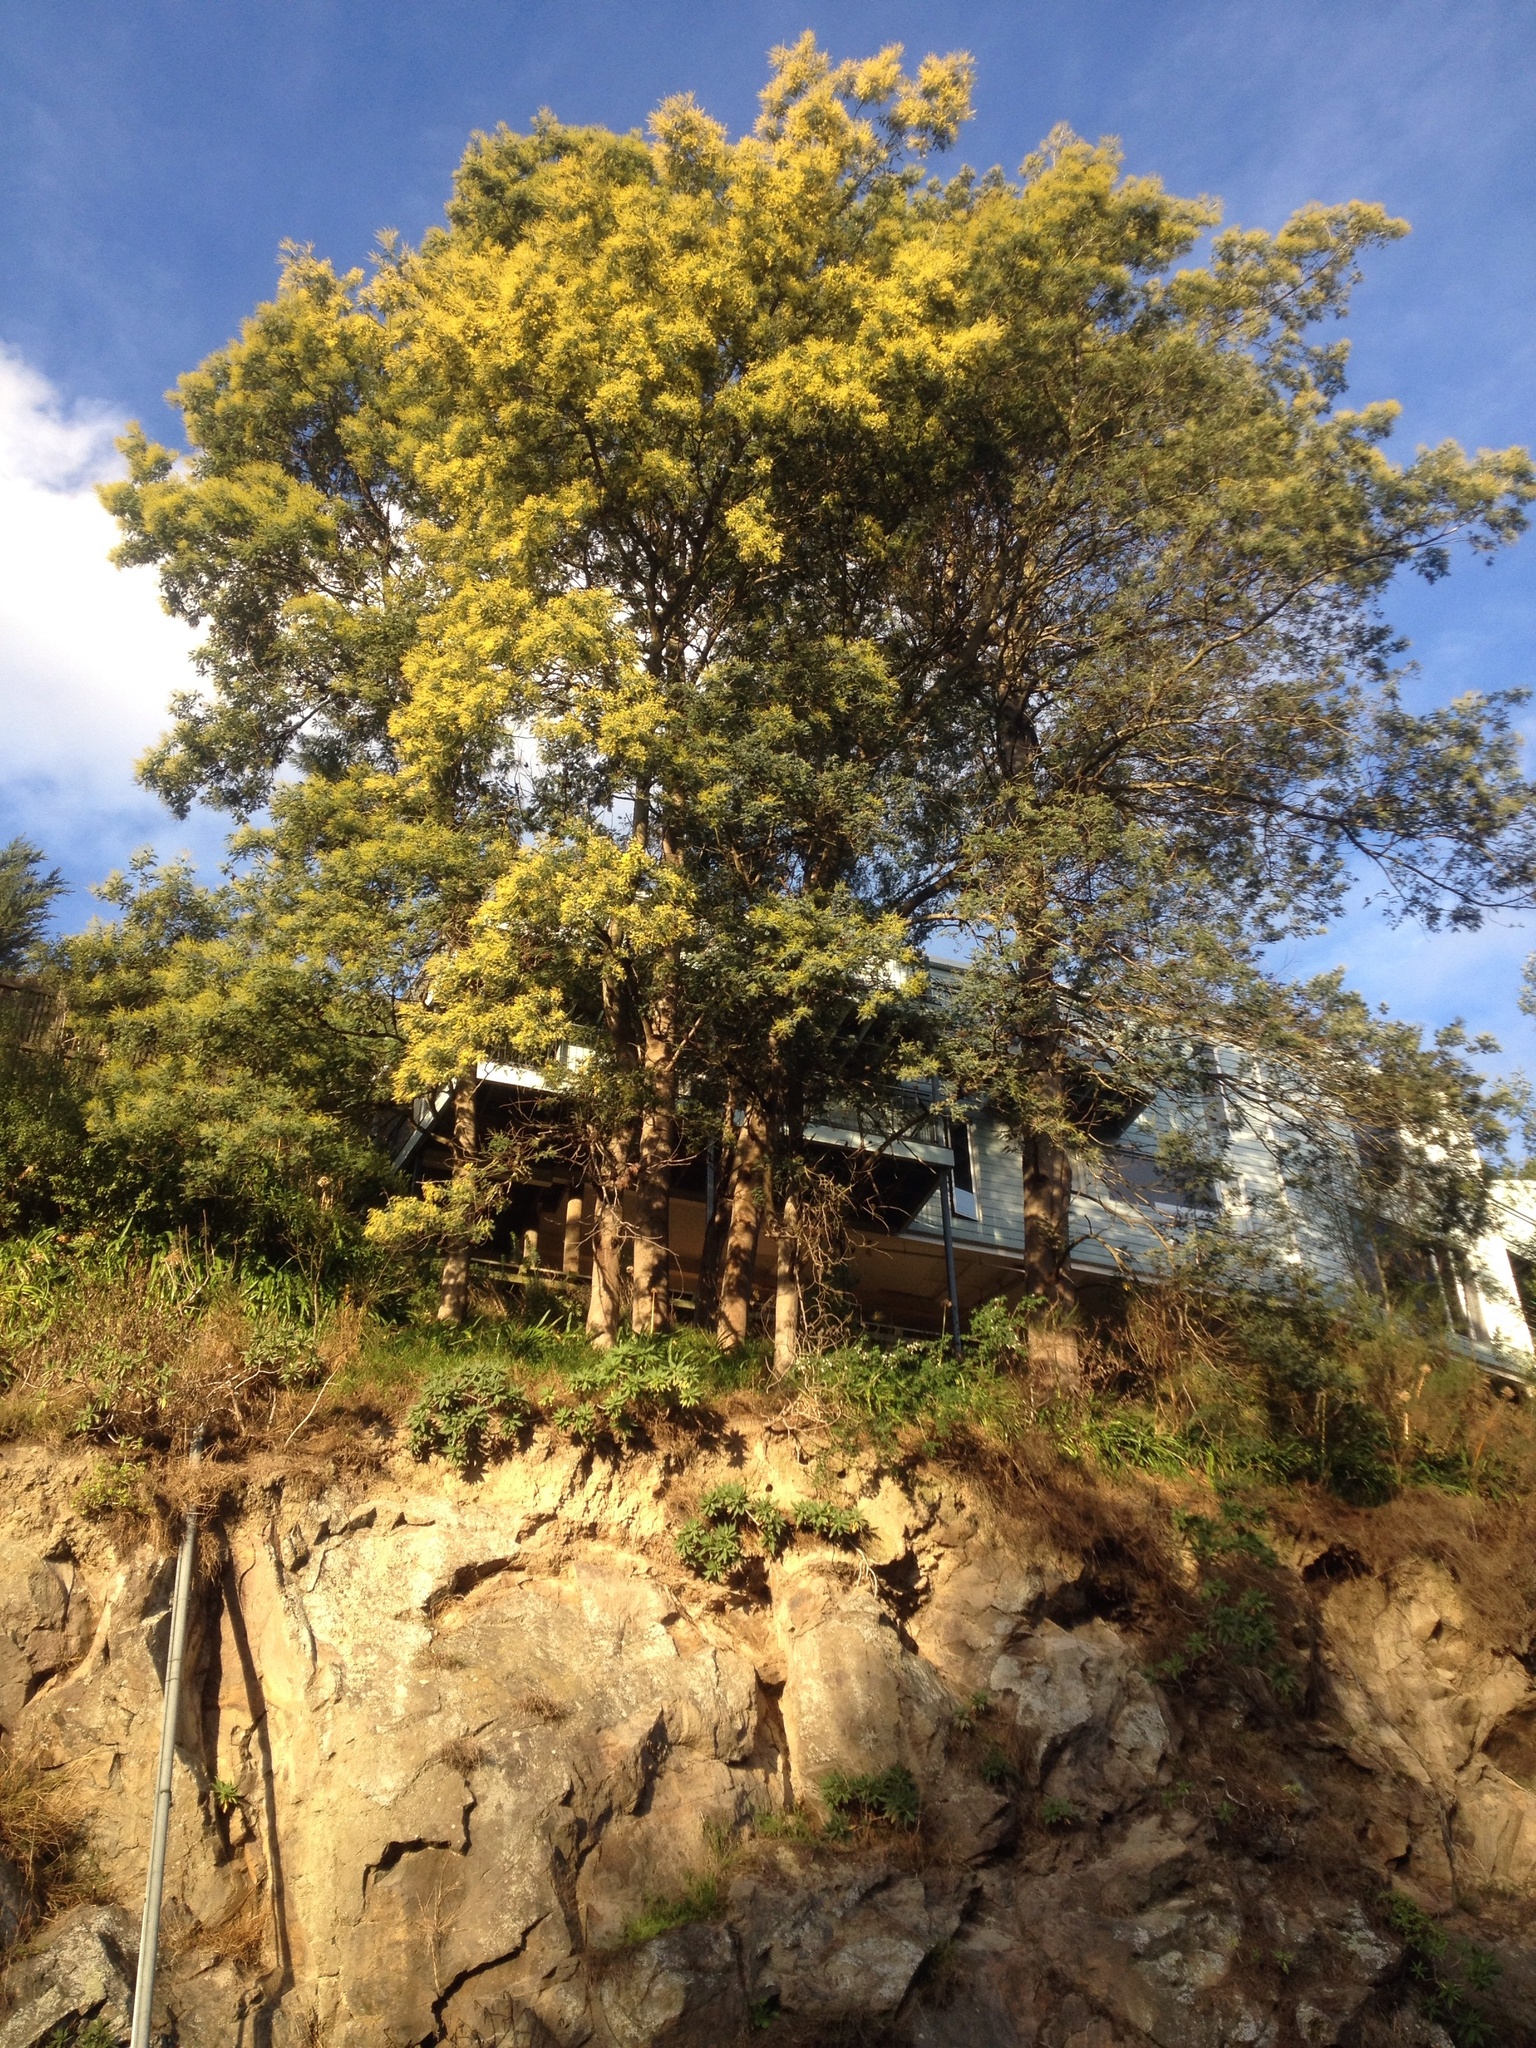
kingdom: Plantae
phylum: Tracheophyta
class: Magnoliopsida
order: Fabales
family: Fabaceae
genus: Acacia
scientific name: Acacia dealbata
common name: Silver wattle
